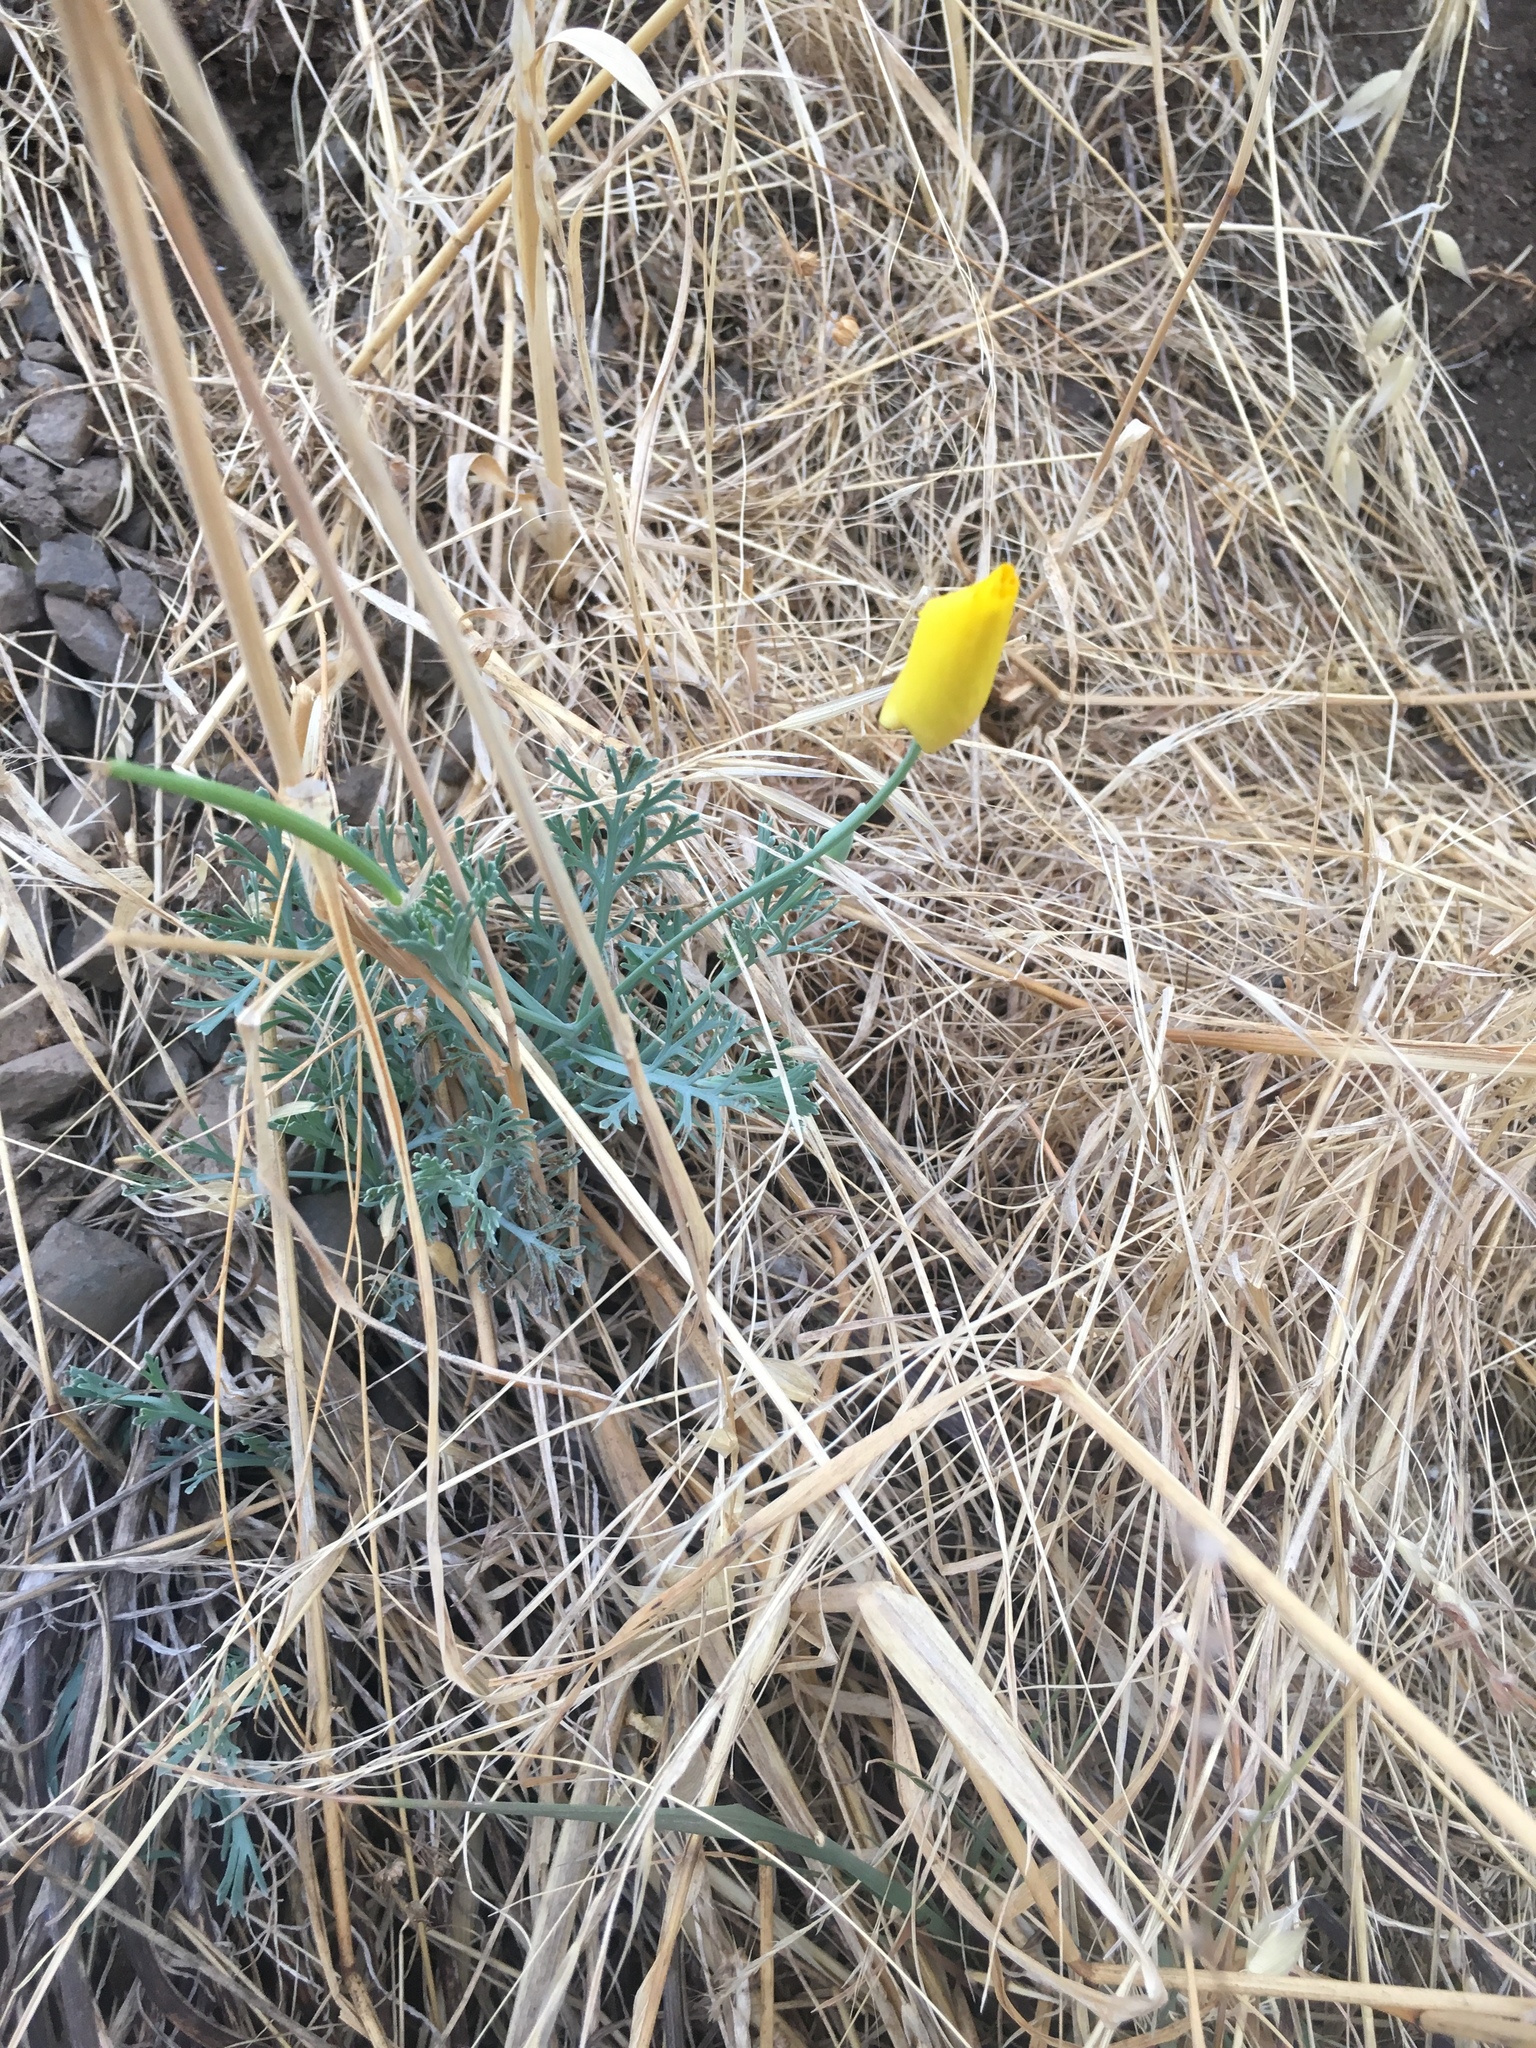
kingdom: Plantae
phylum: Tracheophyta
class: Magnoliopsida
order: Ranunculales
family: Papaveraceae
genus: Eschscholzia
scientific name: Eschscholzia californica
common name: California poppy
